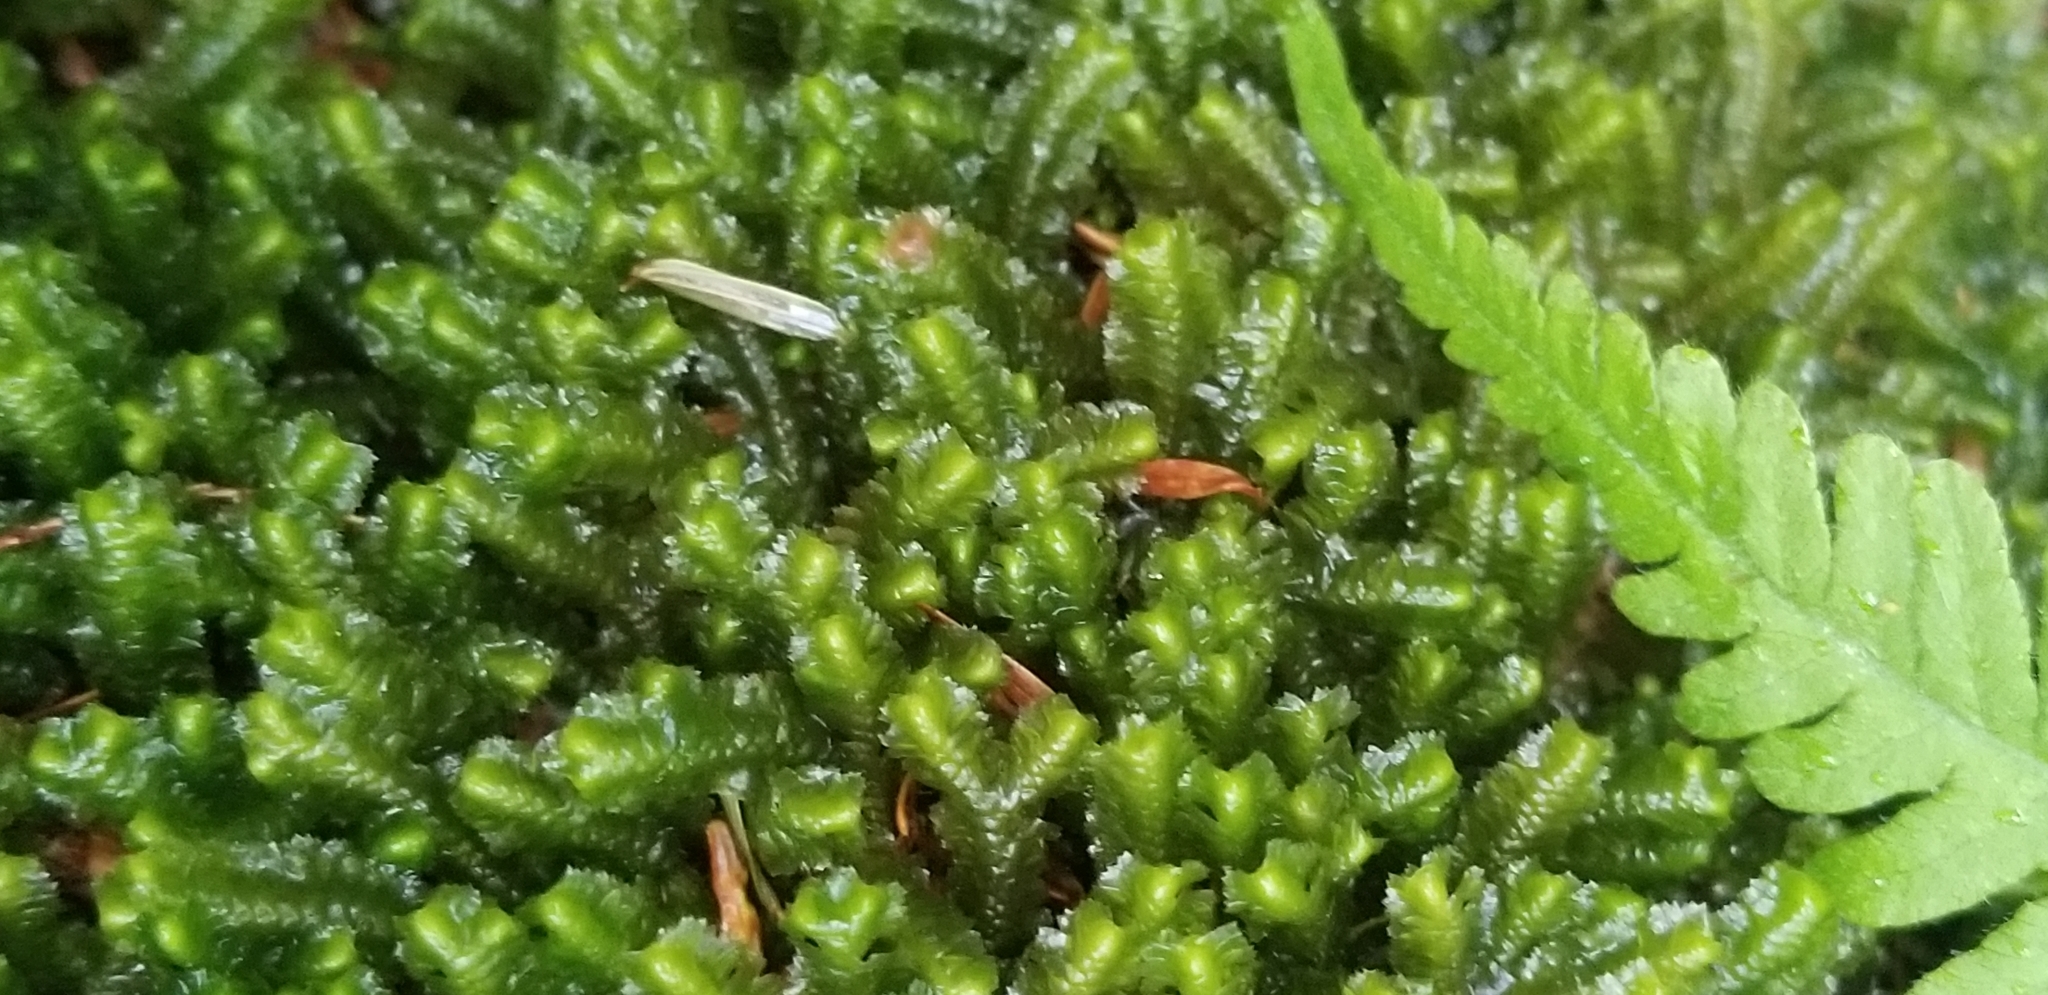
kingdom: Plantae
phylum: Marchantiophyta
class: Jungermanniopsida
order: Jungermanniales
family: Lepidoziaceae
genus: Bazzania
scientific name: Bazzania trilobata
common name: Three-lobed whipwort
